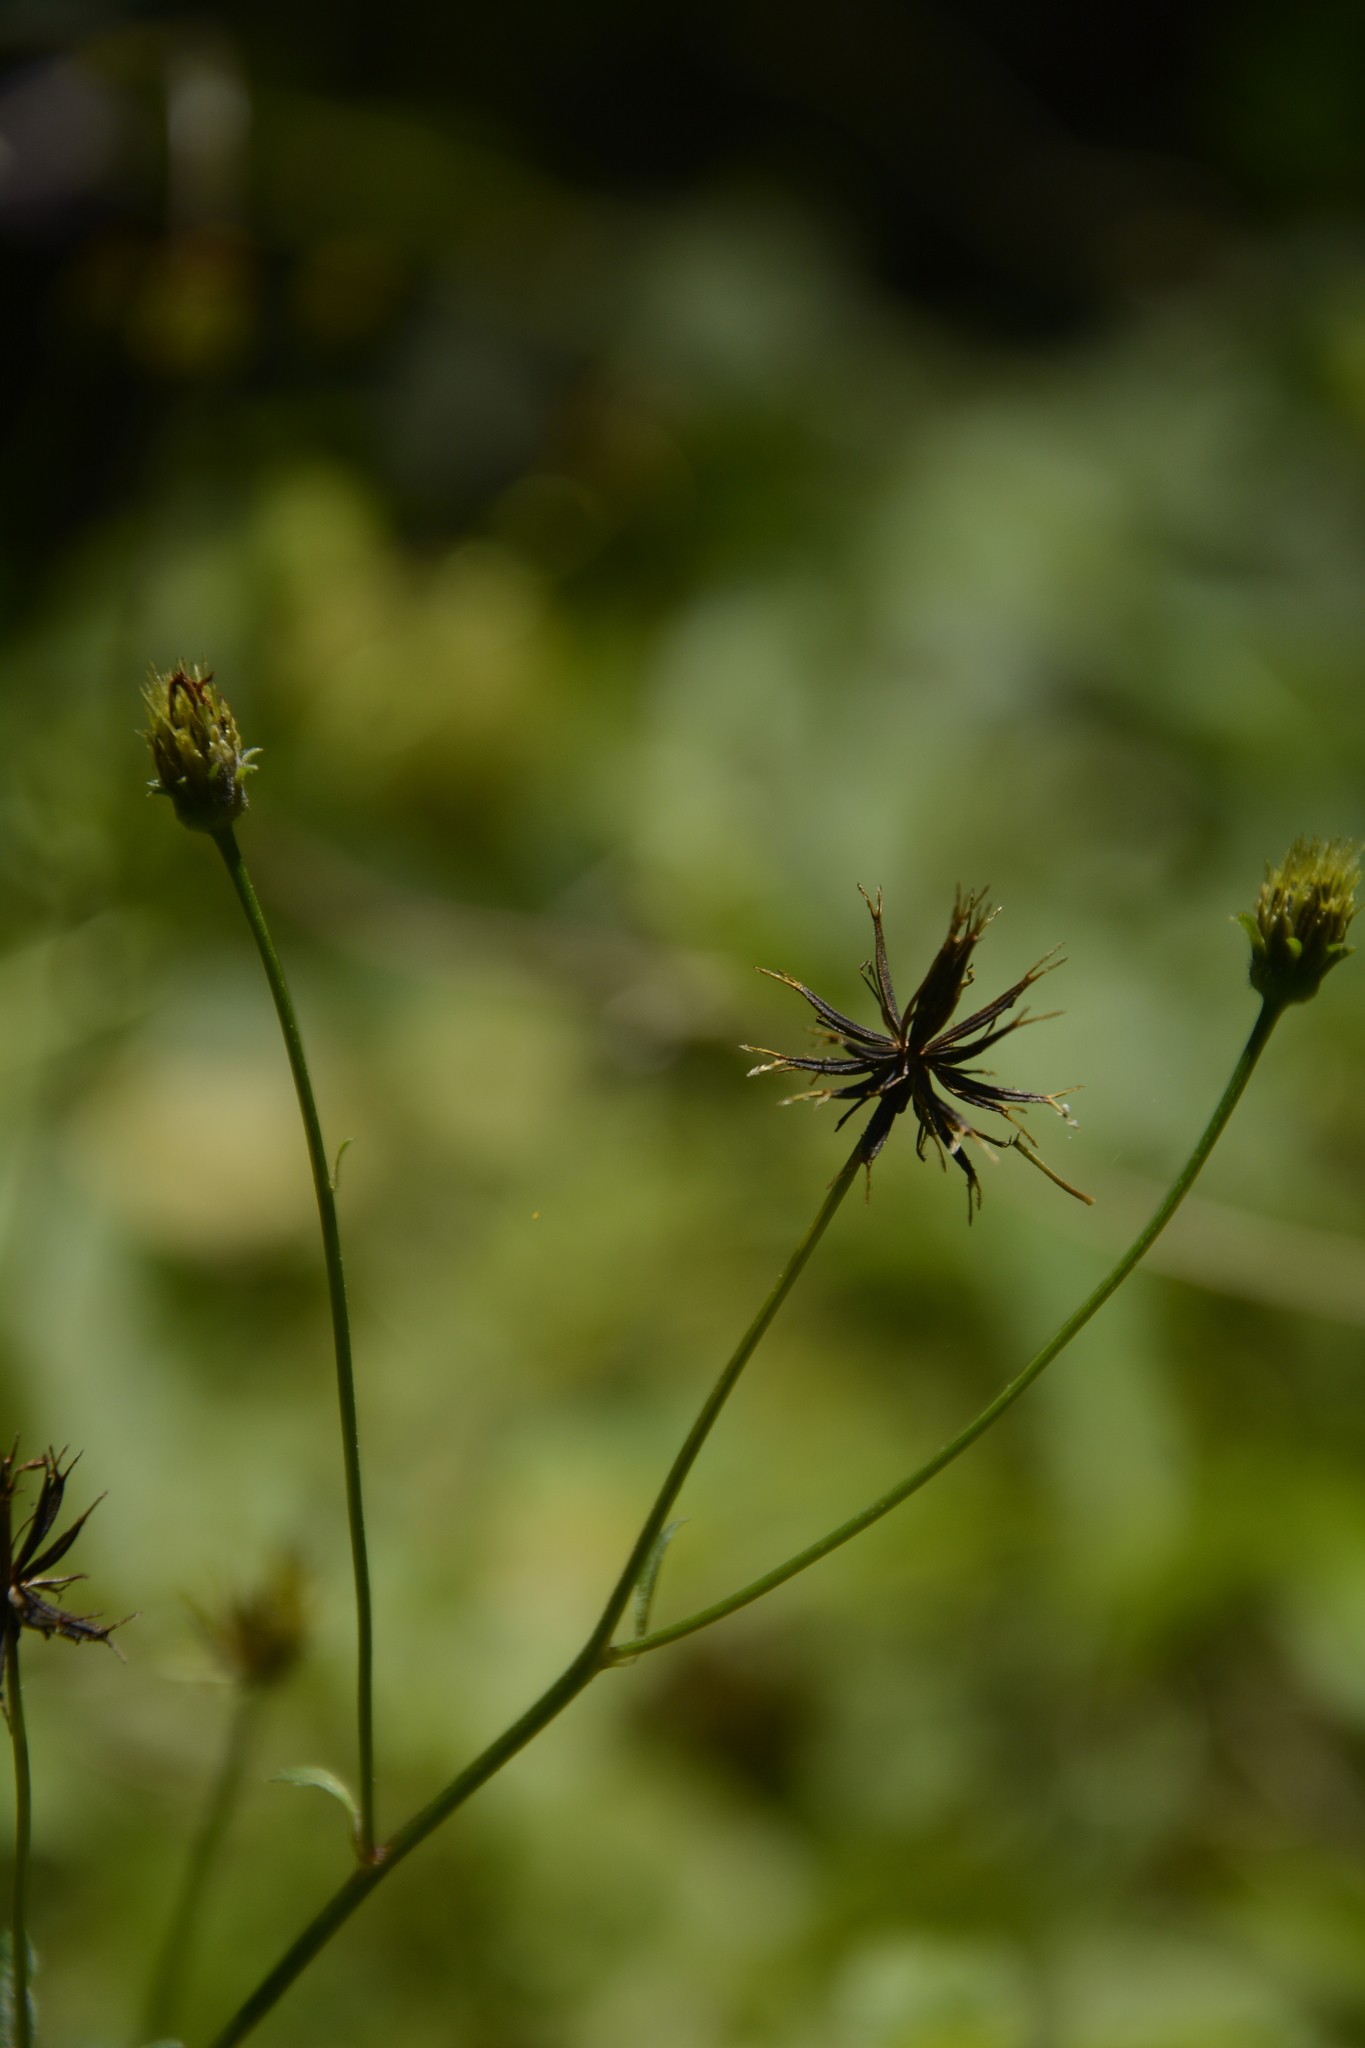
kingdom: Plantae
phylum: Tracheophyta
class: Magnoliopsida
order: Asterales
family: Asteraceae
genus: Tridax
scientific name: Tridax procumbens
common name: Coatbuttons
